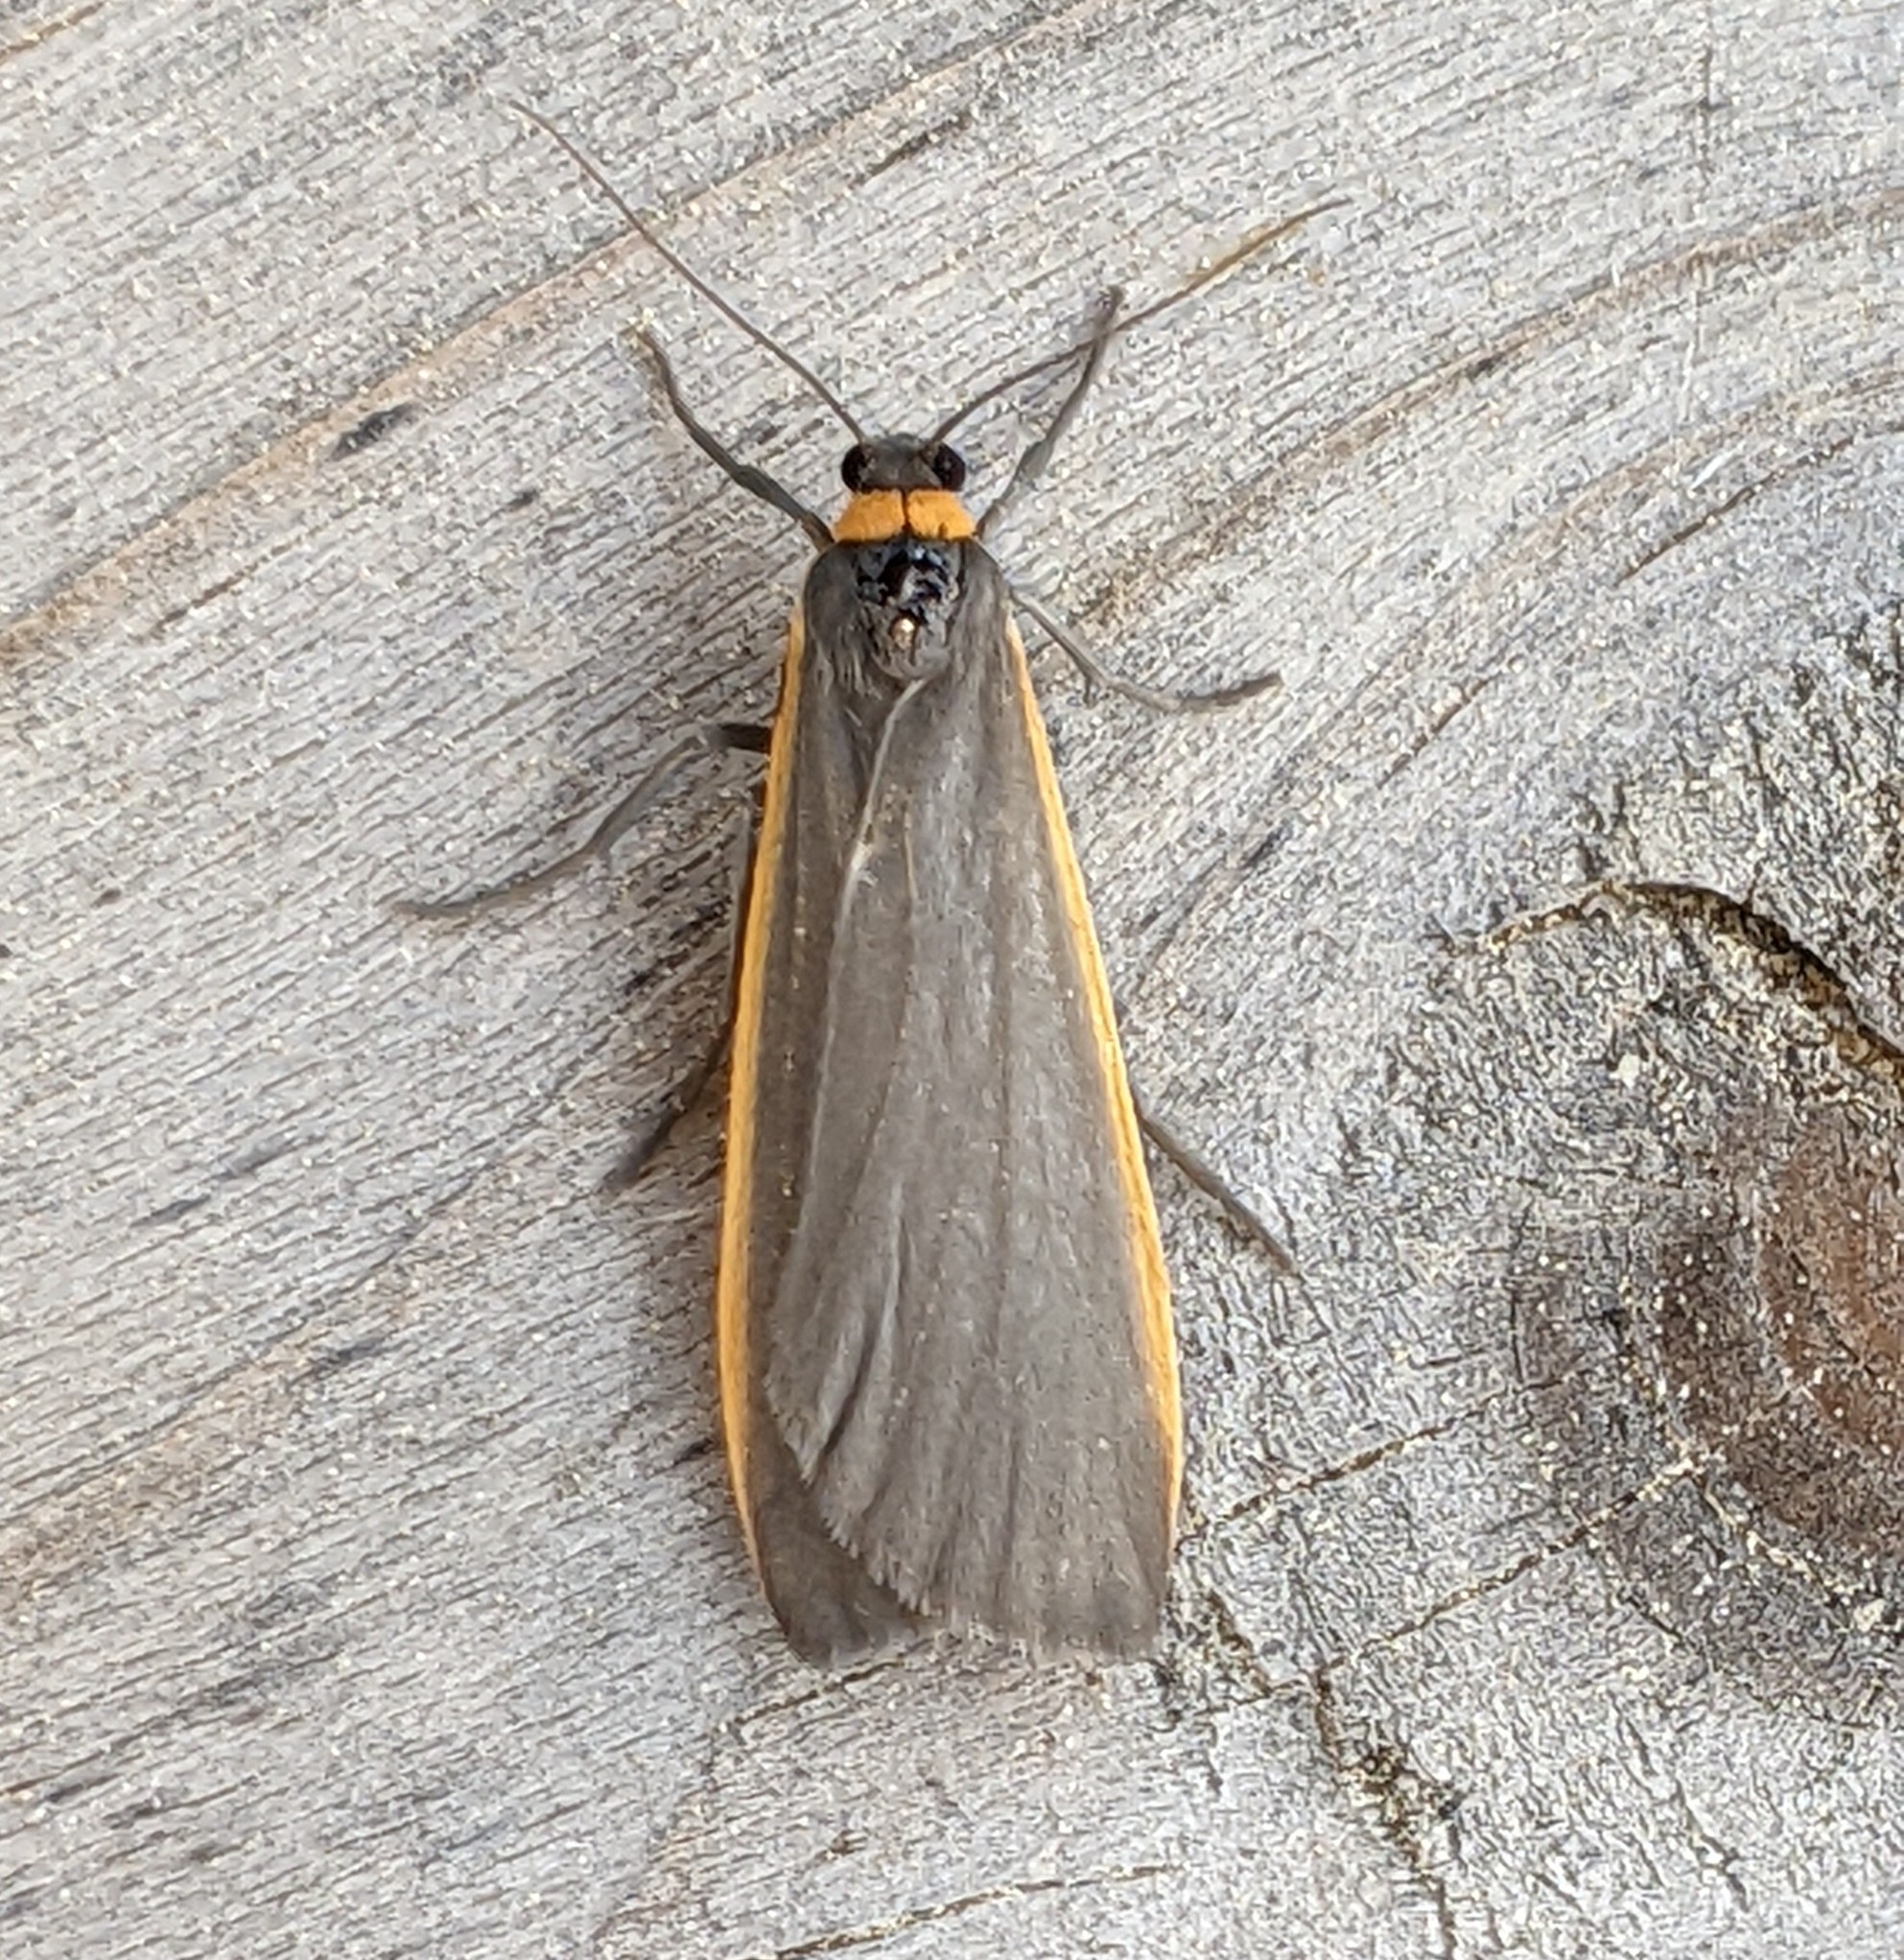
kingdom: Animalia
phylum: Arthropoda
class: Insecta
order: Lepidoptera
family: Erebidae
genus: Manulea
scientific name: Manulea bicolor
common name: Bicolored moth
